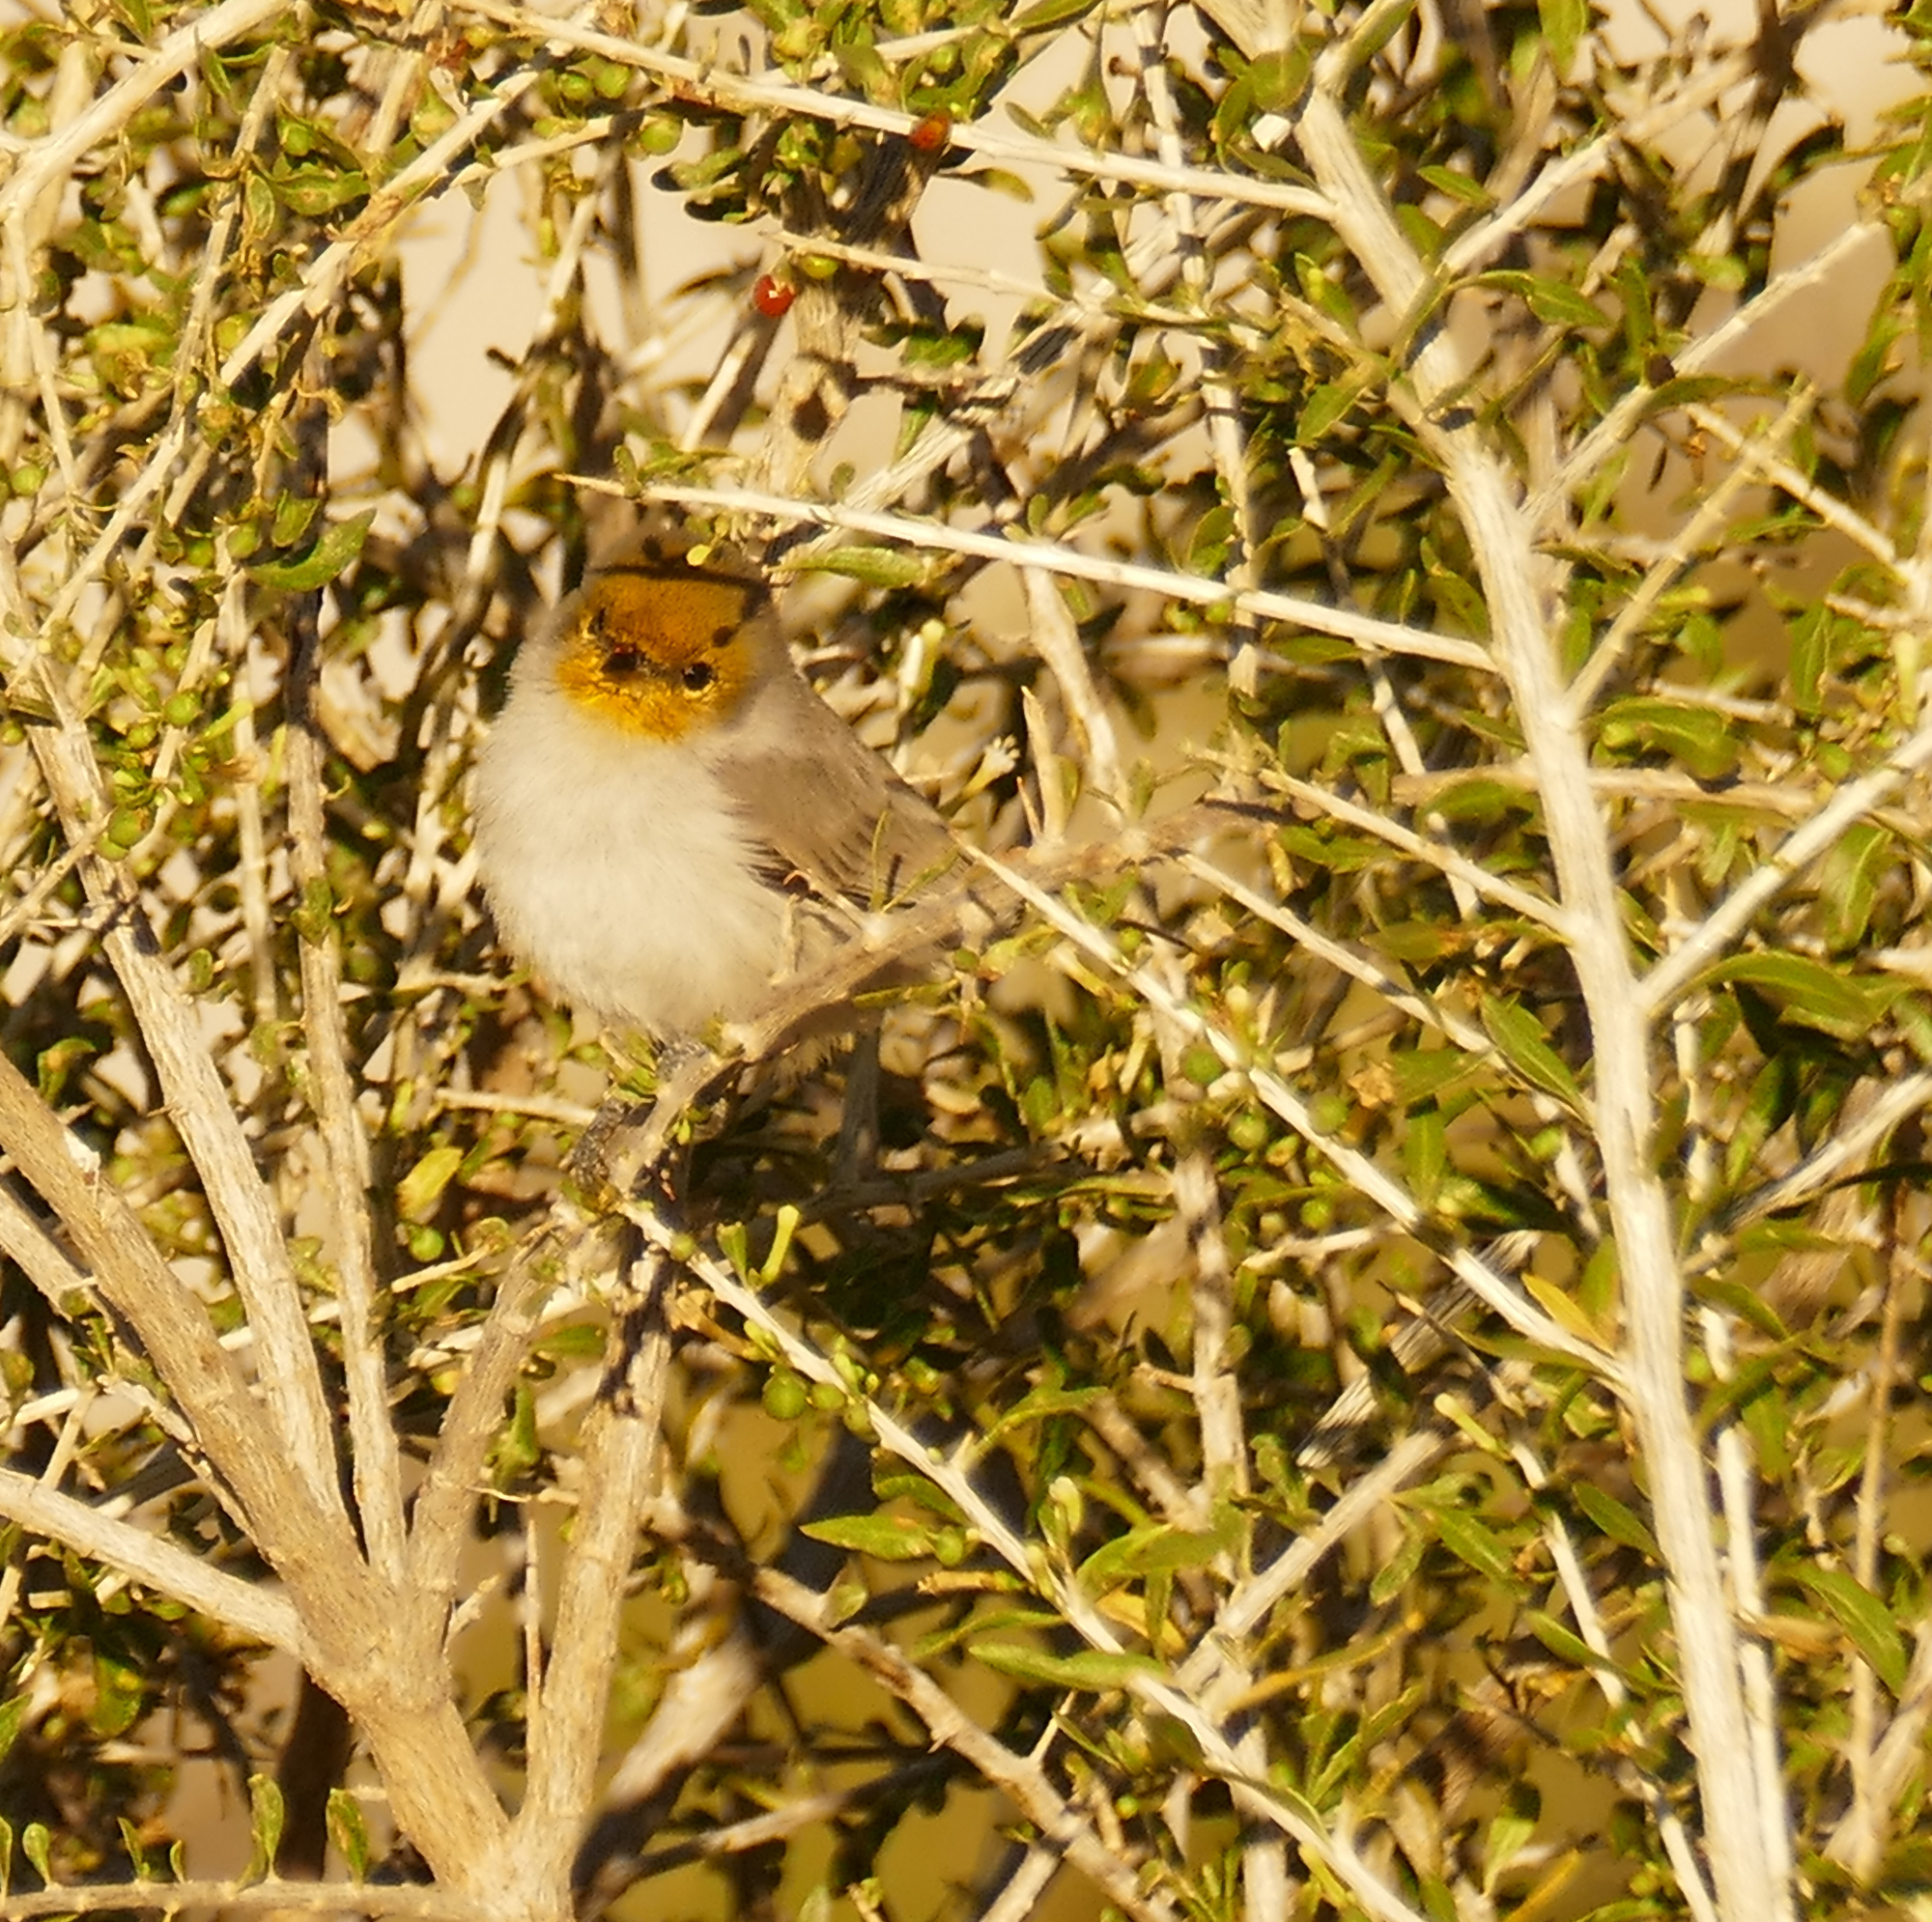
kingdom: Animalia
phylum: Chordata
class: Aves
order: Passeriformes
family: Remizidae
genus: Auriparus
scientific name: Auriparus flaviceps
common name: Verdin
